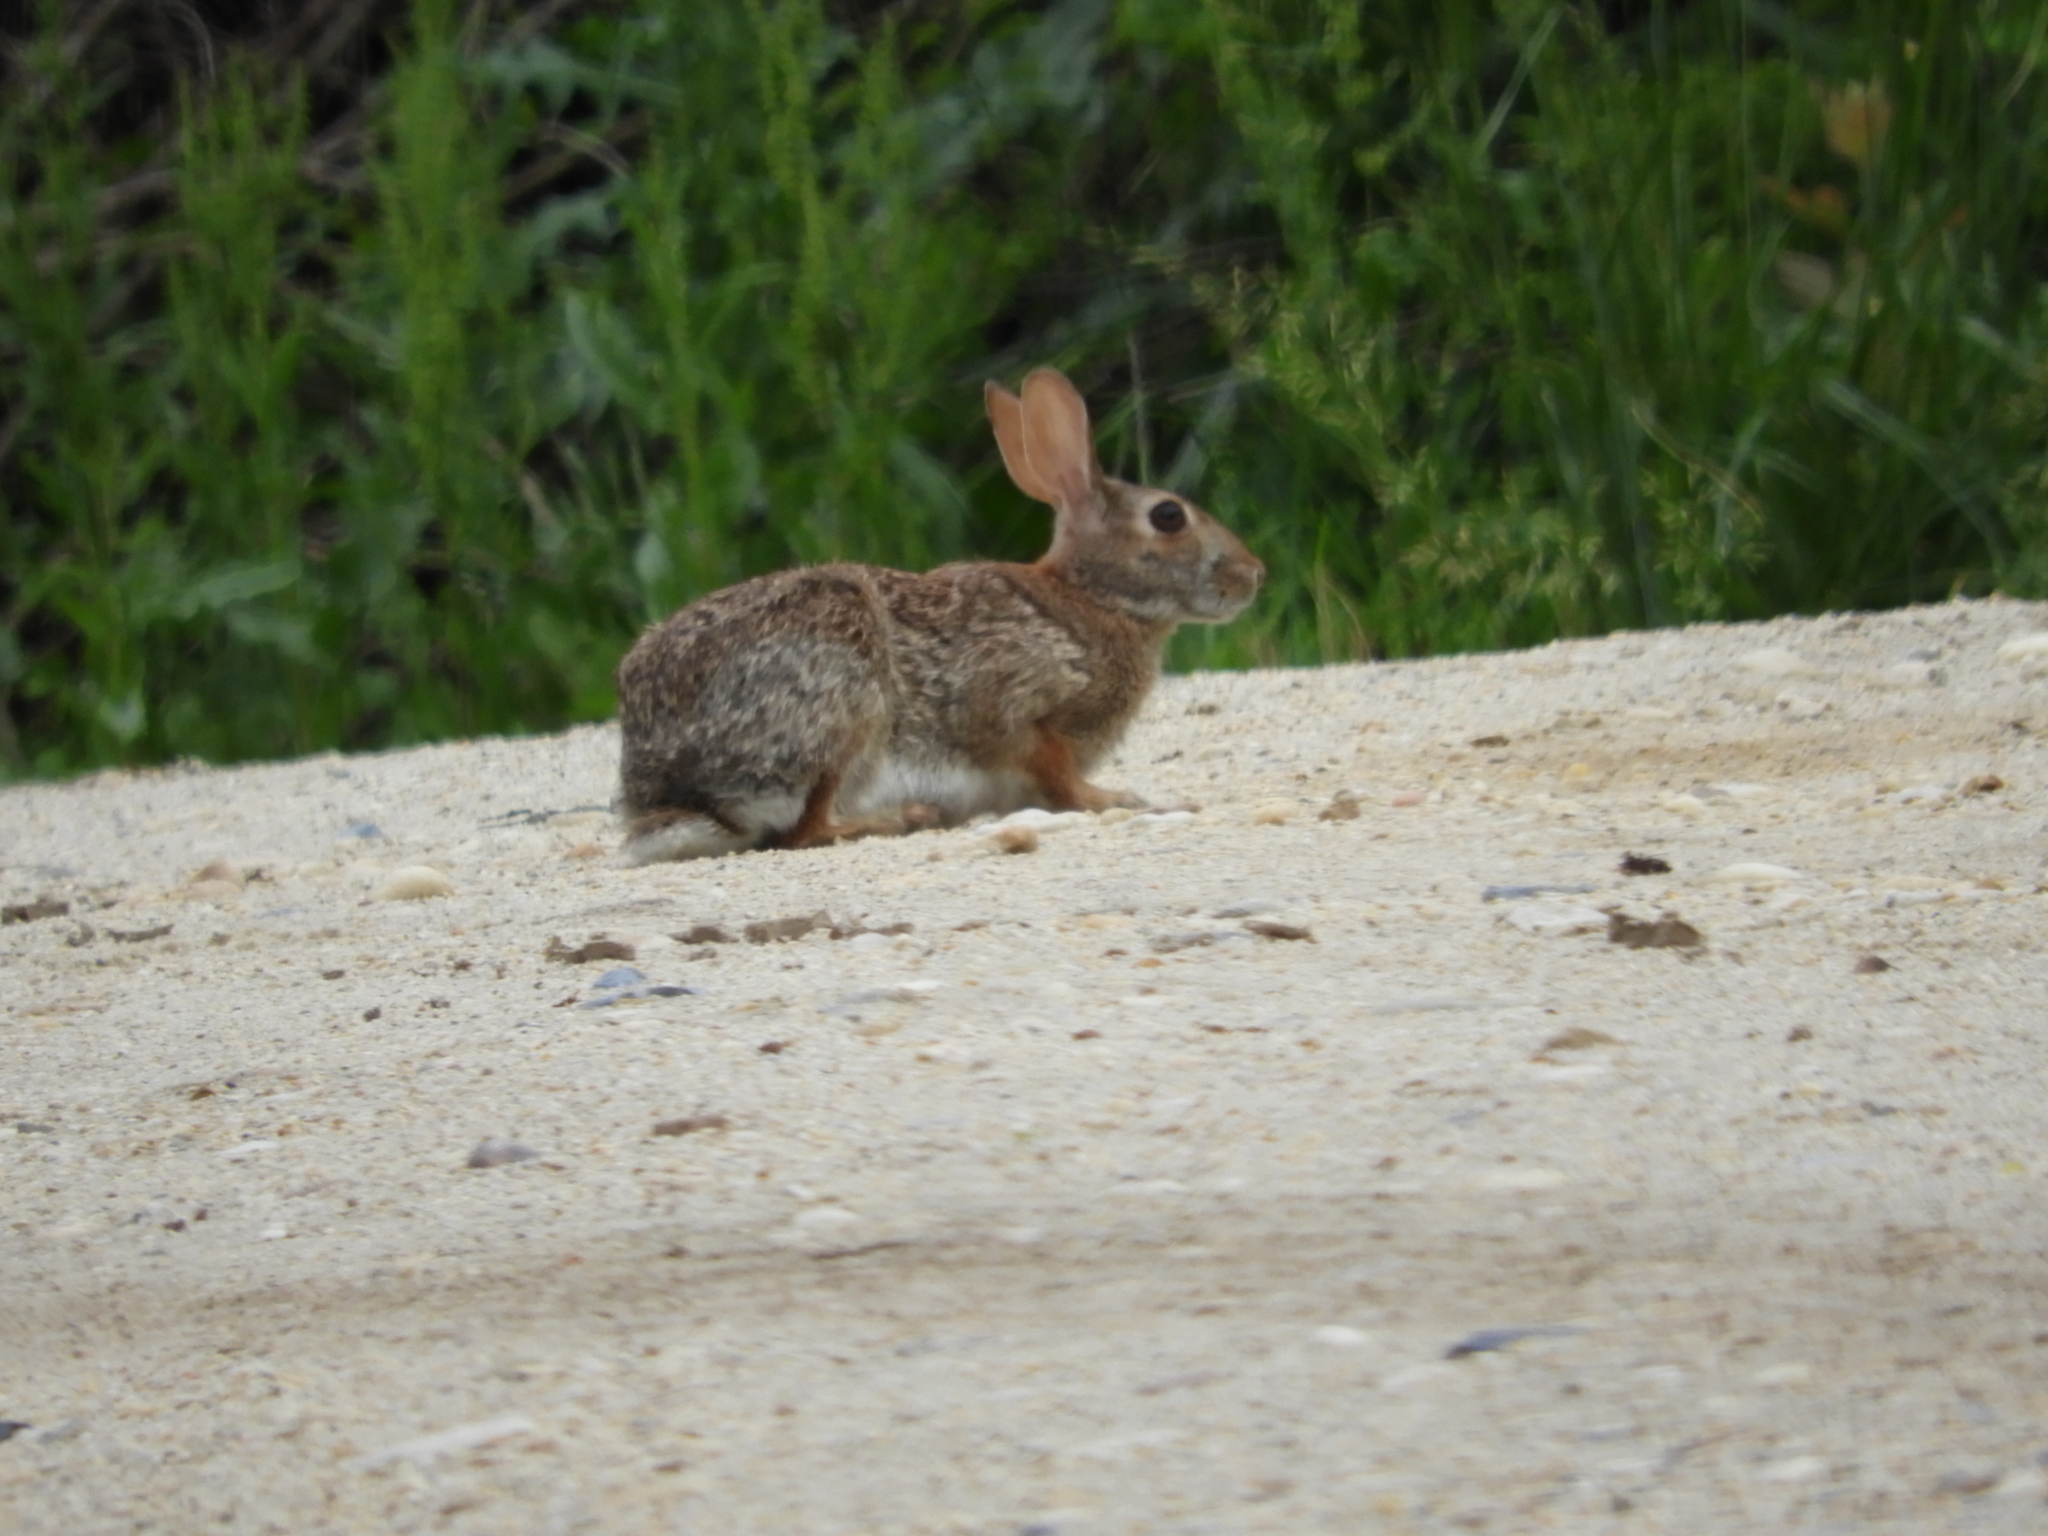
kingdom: Animalia
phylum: Chordata
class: Mammalia
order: Lagomorpha
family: Leporidae
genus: Sylvilagus
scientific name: Sylvilagus floridanus
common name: Eastern cottontail
